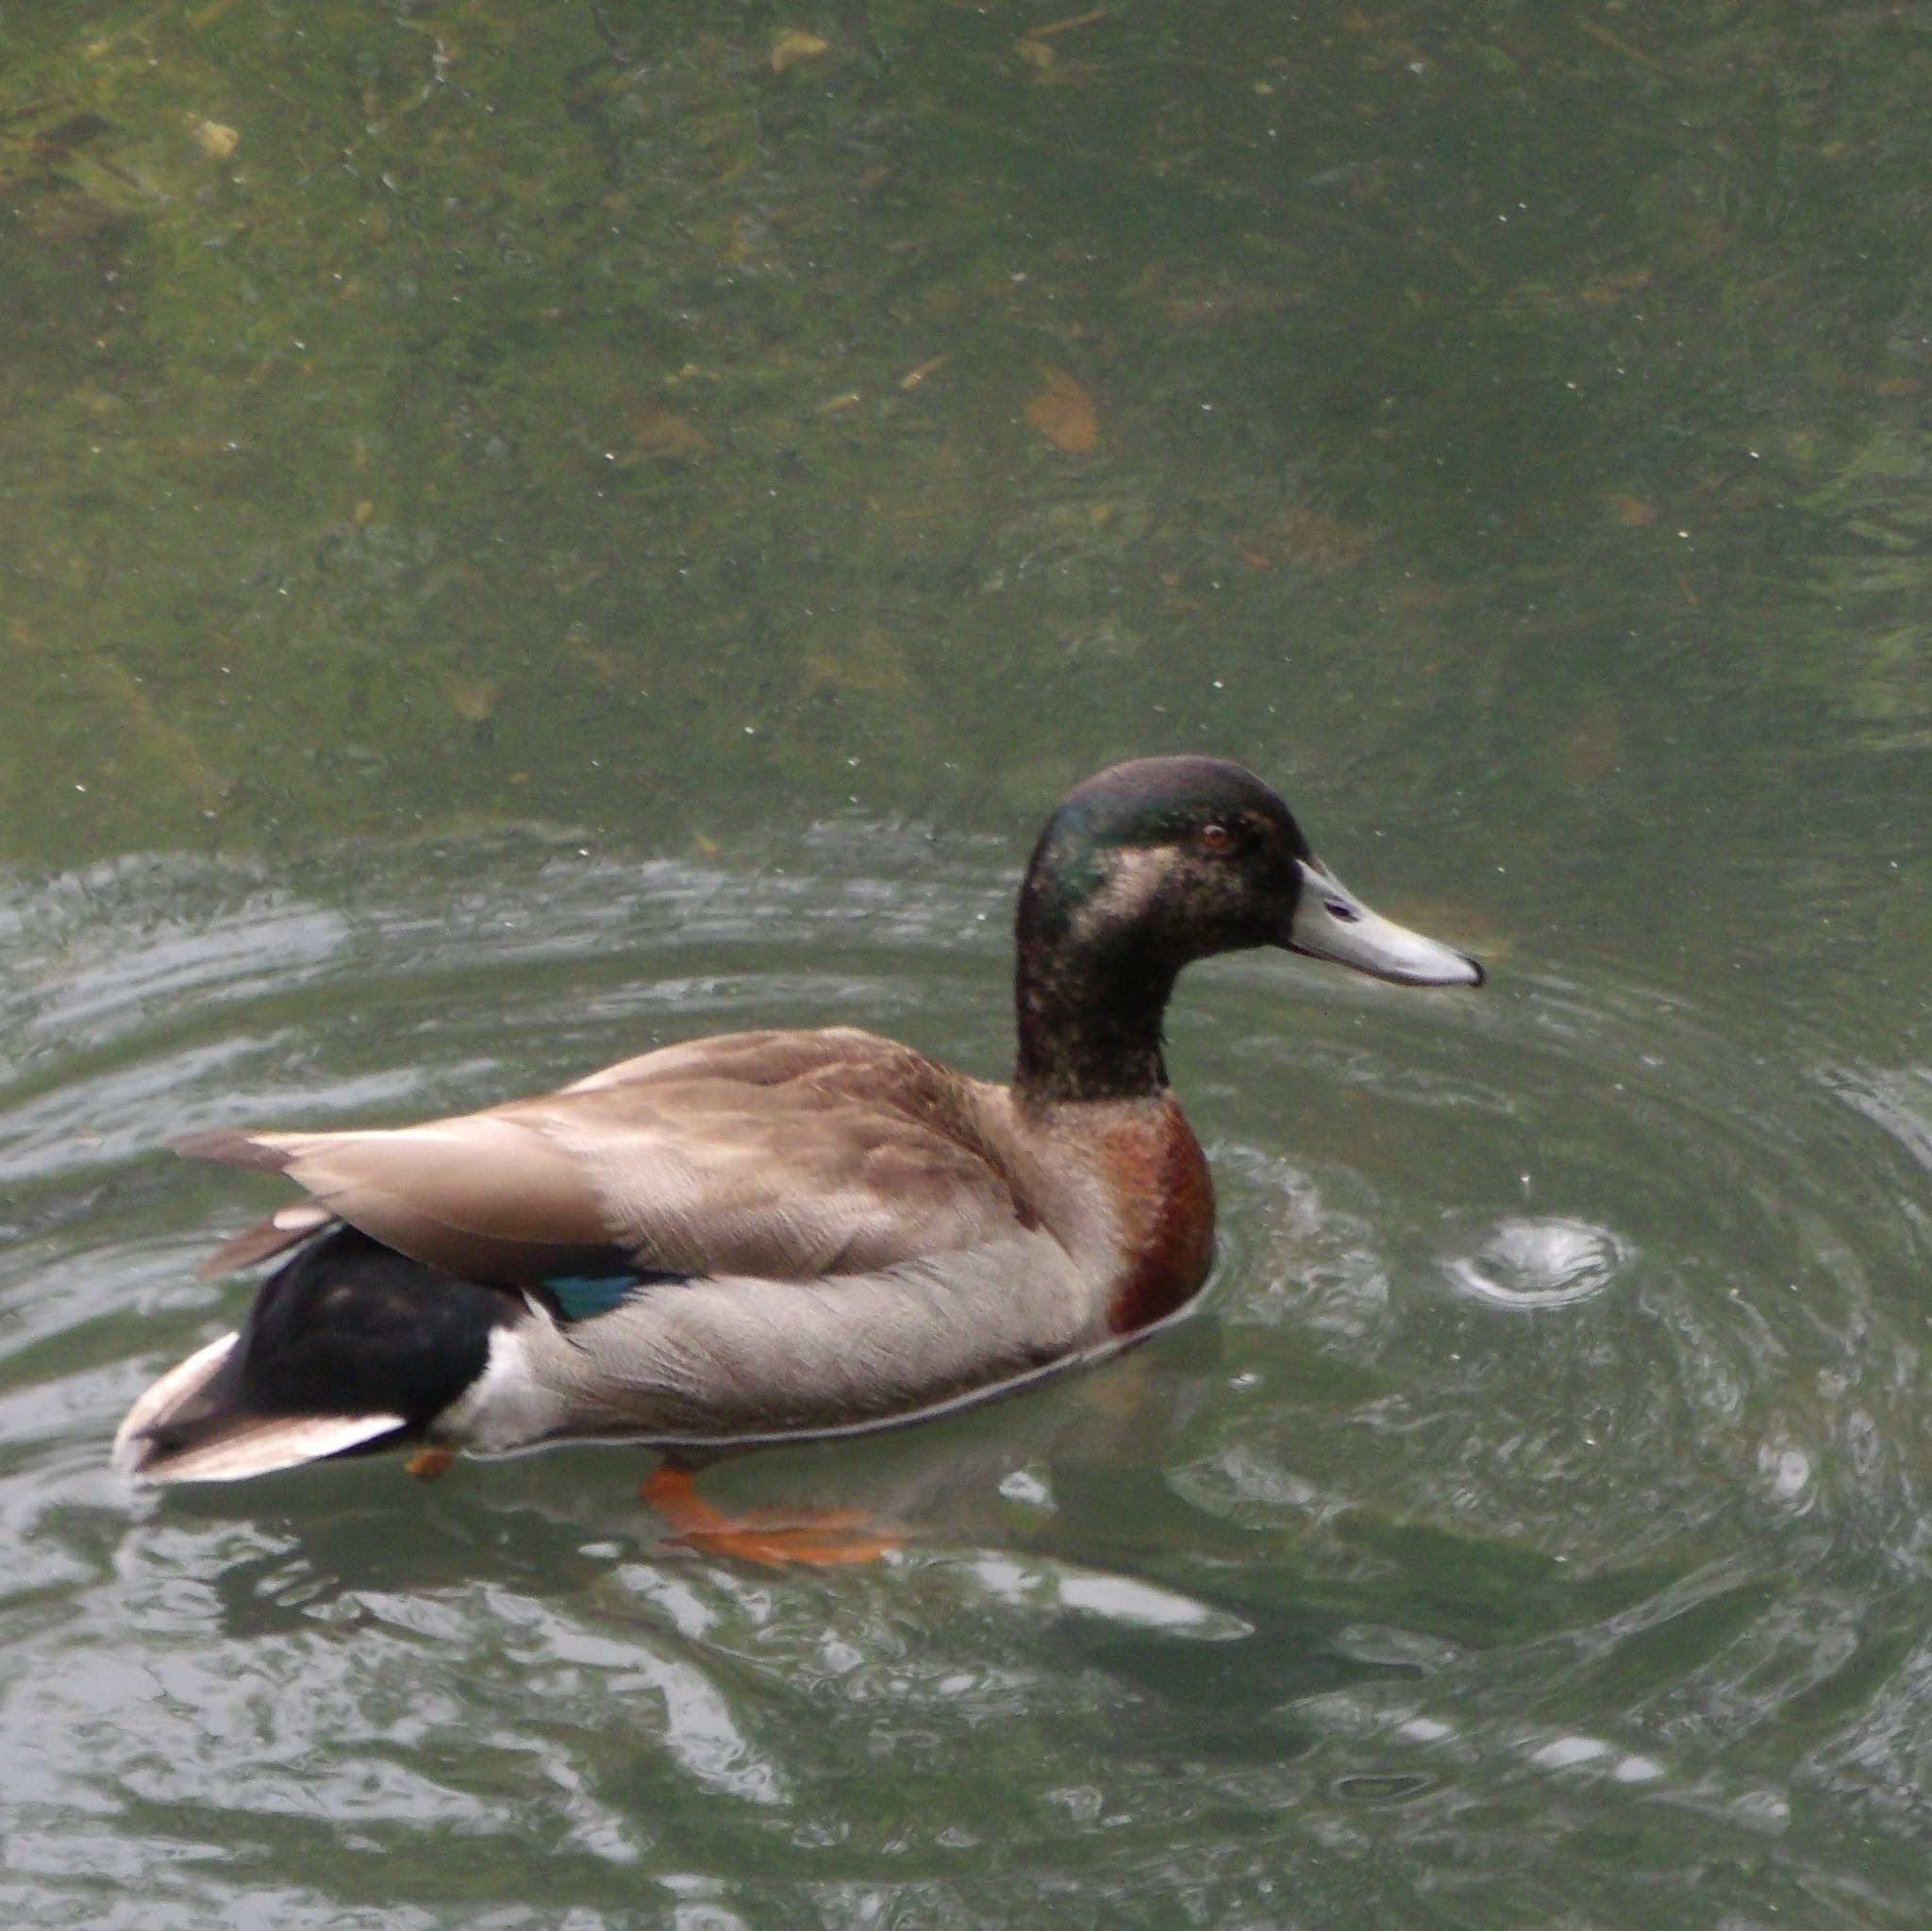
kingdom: Animalia
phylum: Chordata
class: Aves
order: Anseriformes
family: Anatidae
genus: Anas
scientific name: Anas platyrhynchos
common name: Mallard
